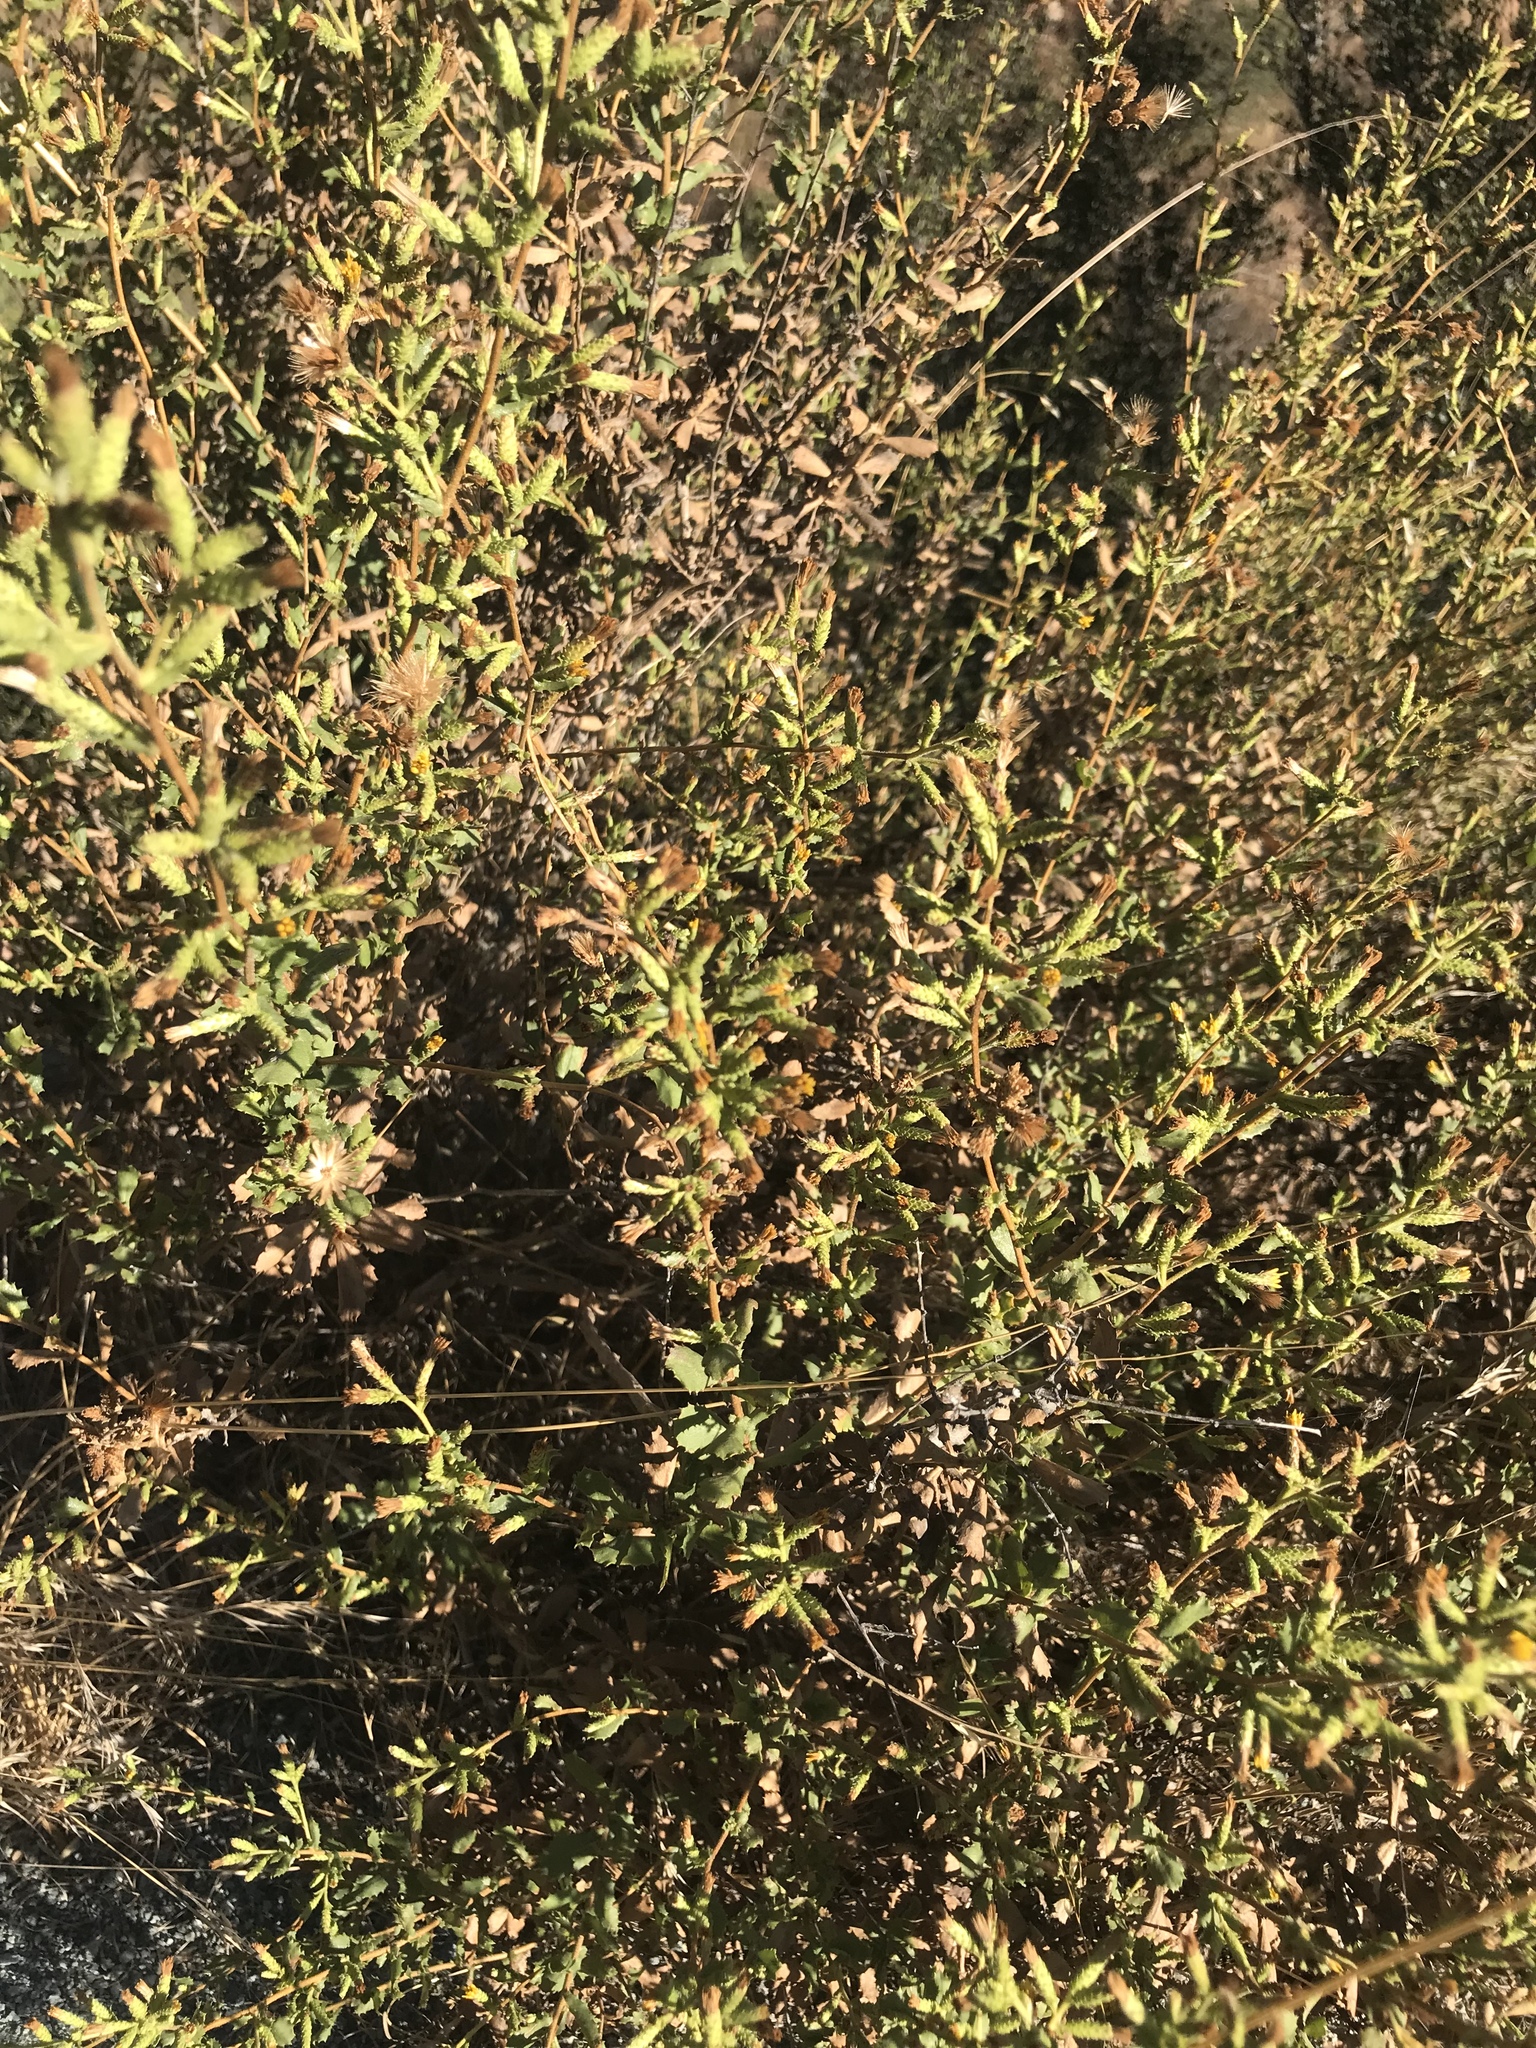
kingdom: Plantae
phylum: Tracheophyta
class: Magnoliopsida
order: Asterales
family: Asteraceae
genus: Hazardia
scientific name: Hazardia squarrosa
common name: Saw-tooth goldenbush
